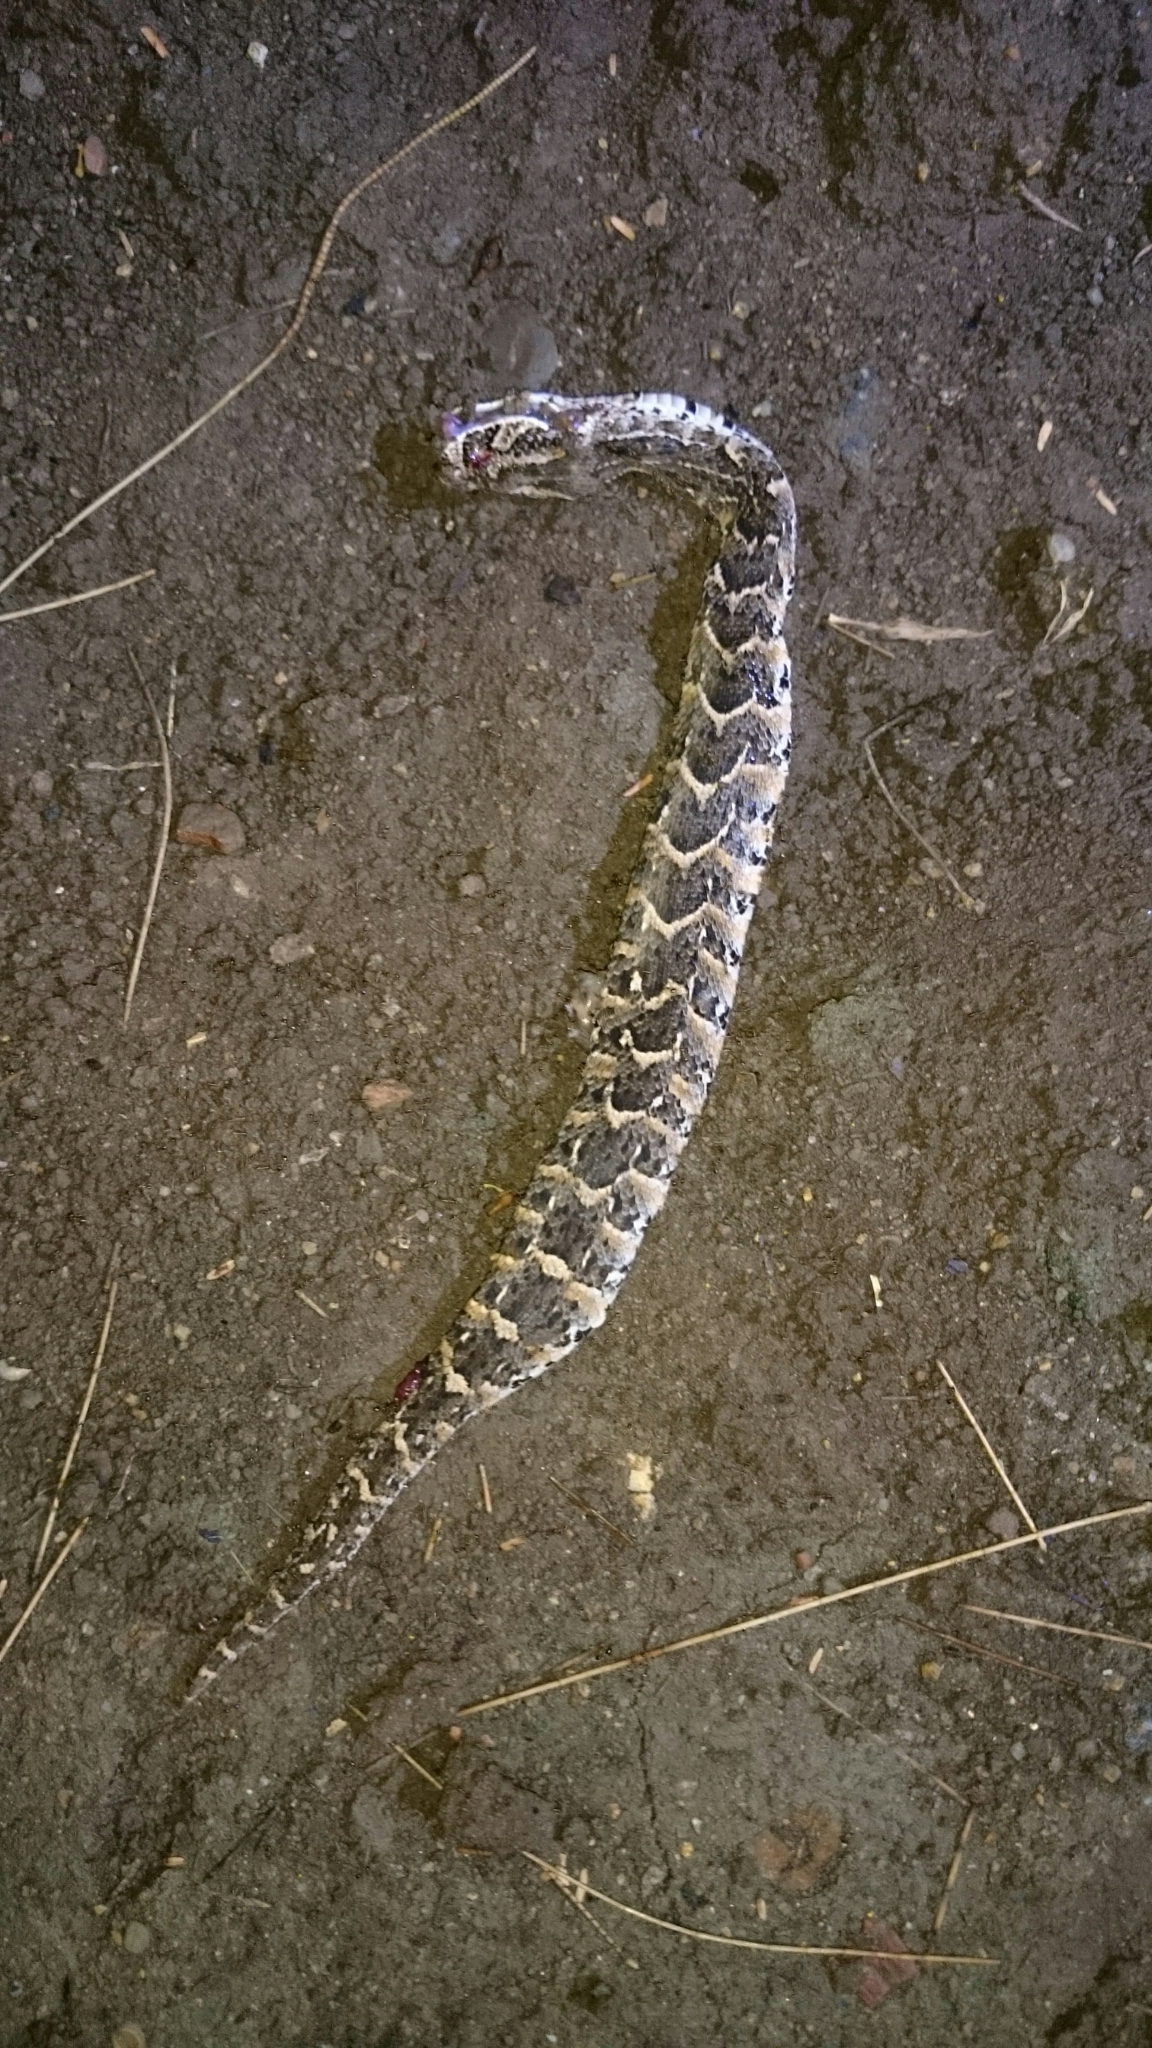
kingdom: Animalia
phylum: Chordata
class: Squamata
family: Viperidae
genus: Bitis
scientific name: Bitis arietans
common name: Puff adder
